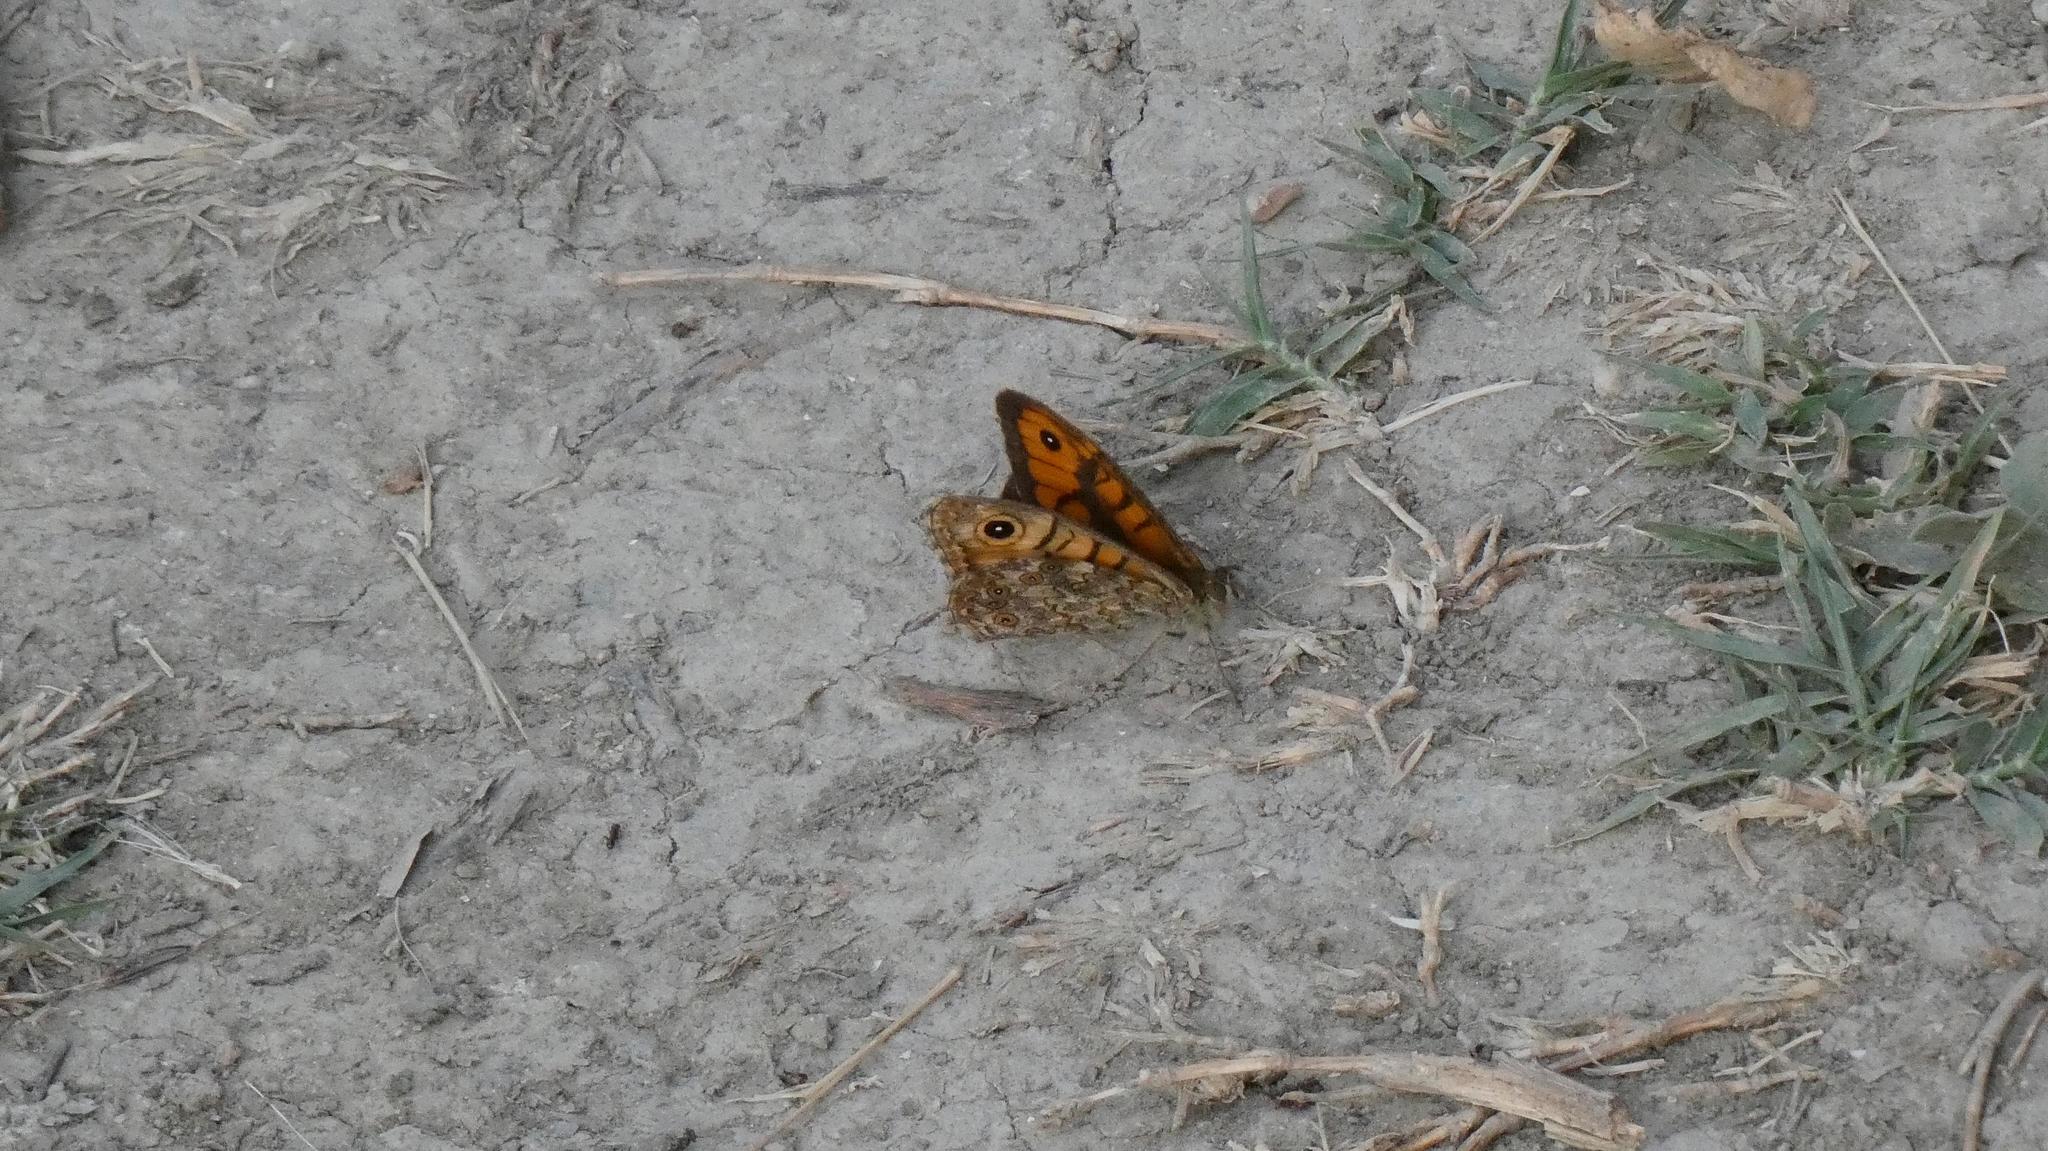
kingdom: Animalia
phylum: Arthropoda
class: Insecta
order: Lepidoptera
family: Nymphalidae
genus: Pararge
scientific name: Pararge Lasiommata megera
